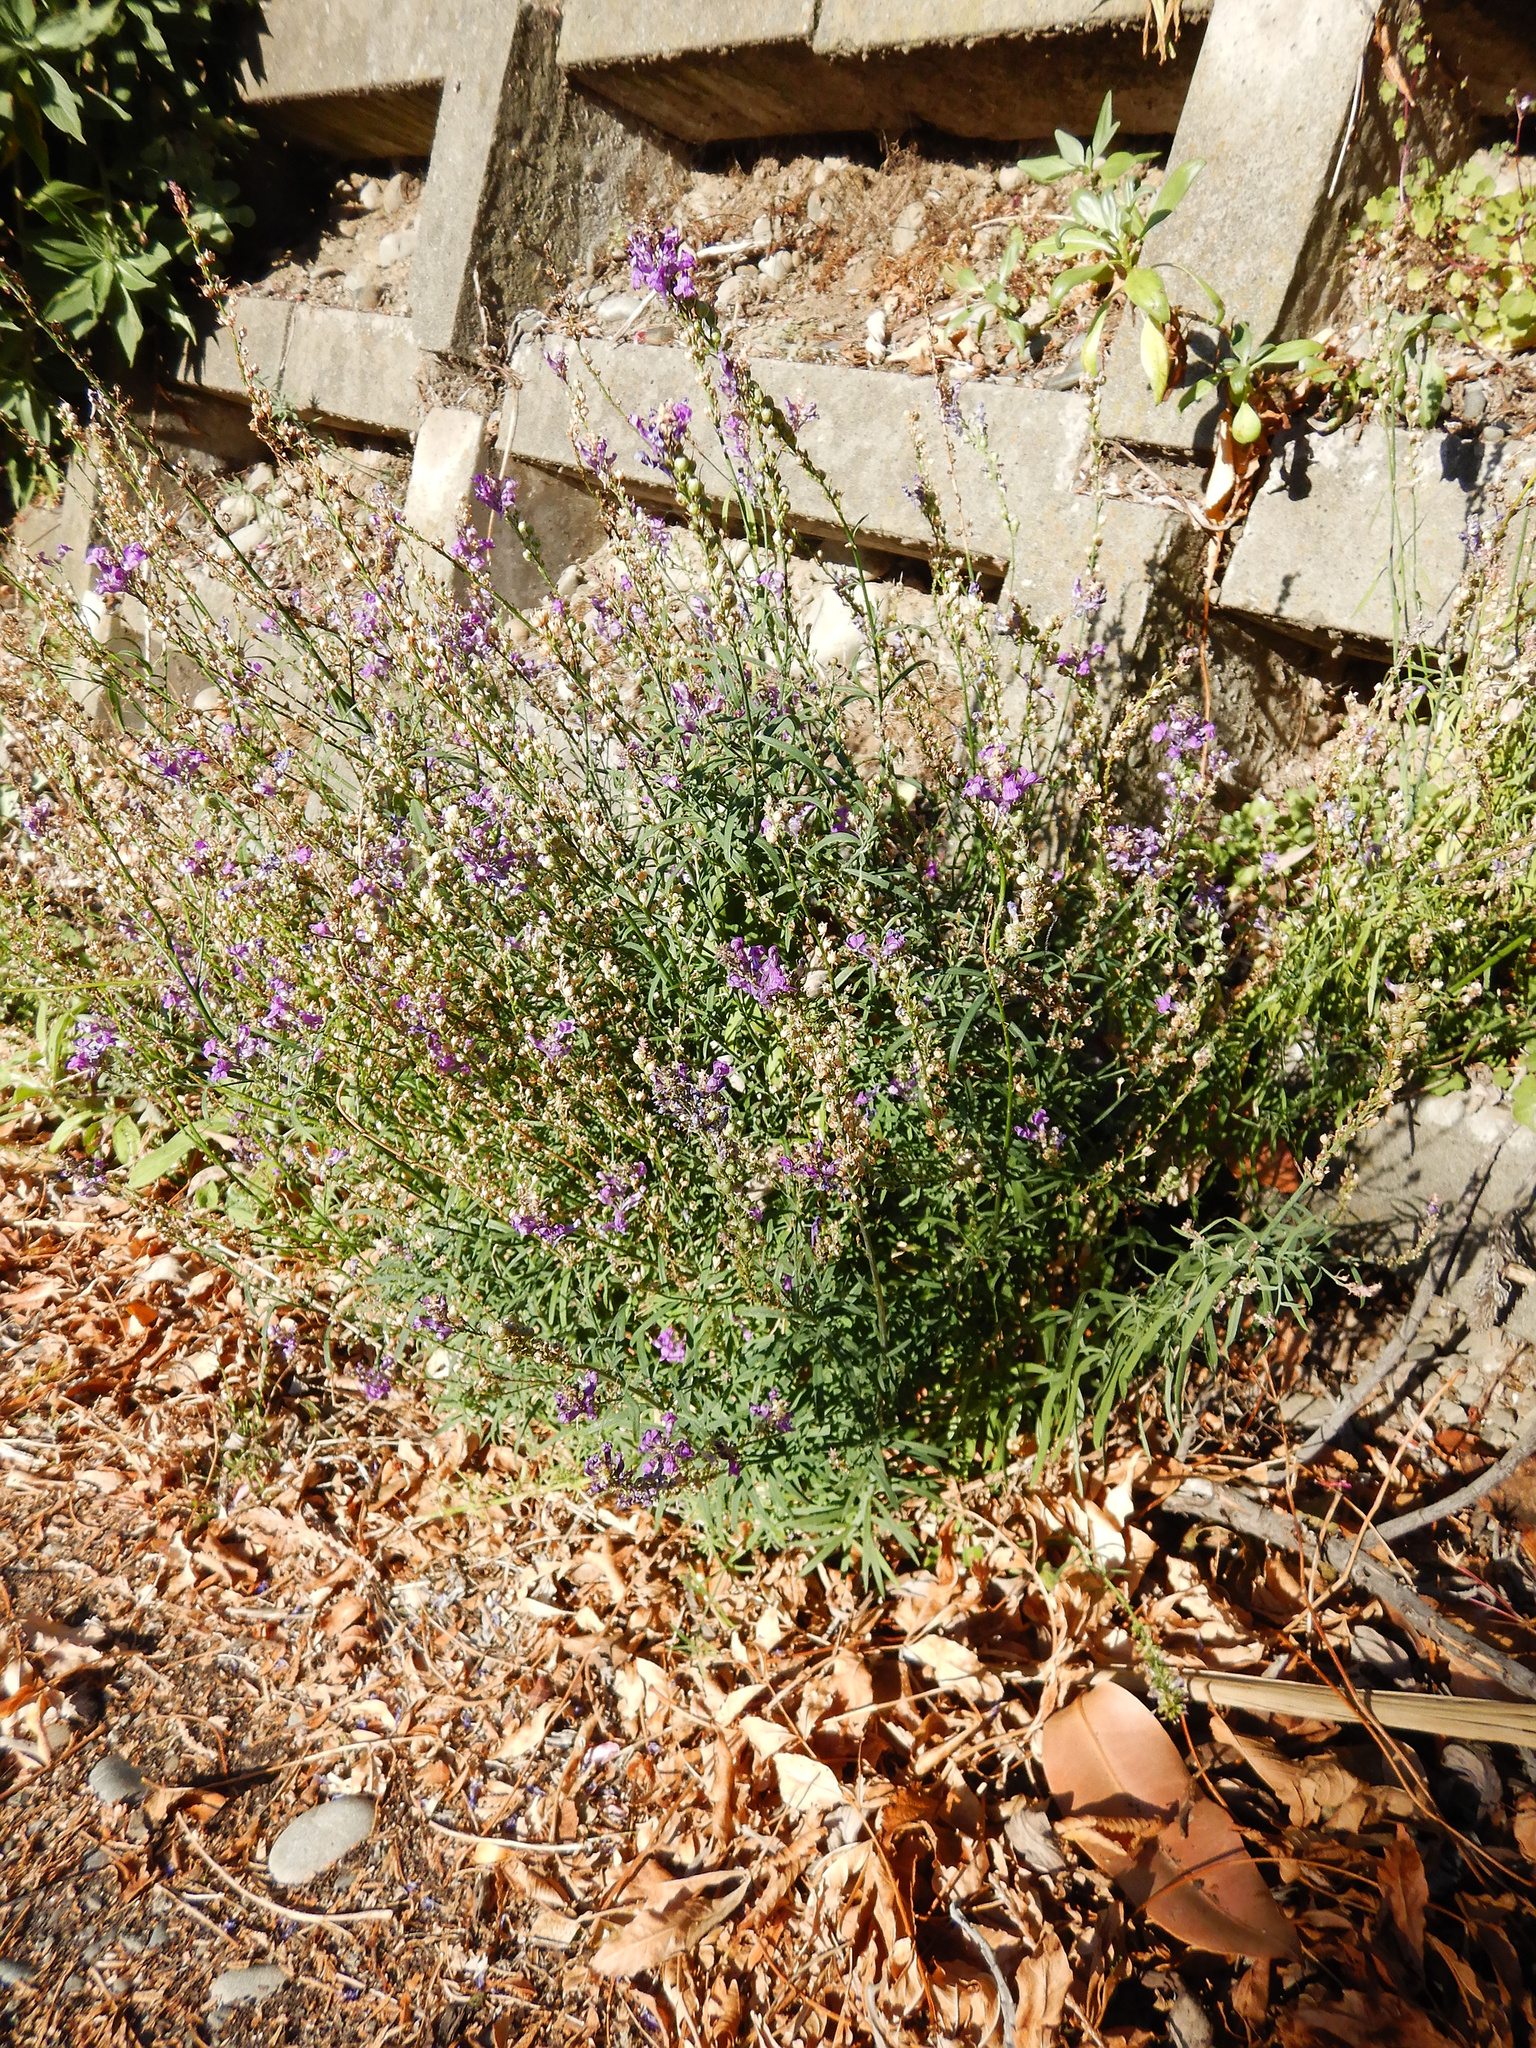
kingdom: Plantae
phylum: Tracheophyta
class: Magnoliopsida
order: Lamiales
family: Plantaginaceae
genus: Linaria
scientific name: Linaria purpurea
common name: Purple toadflax
